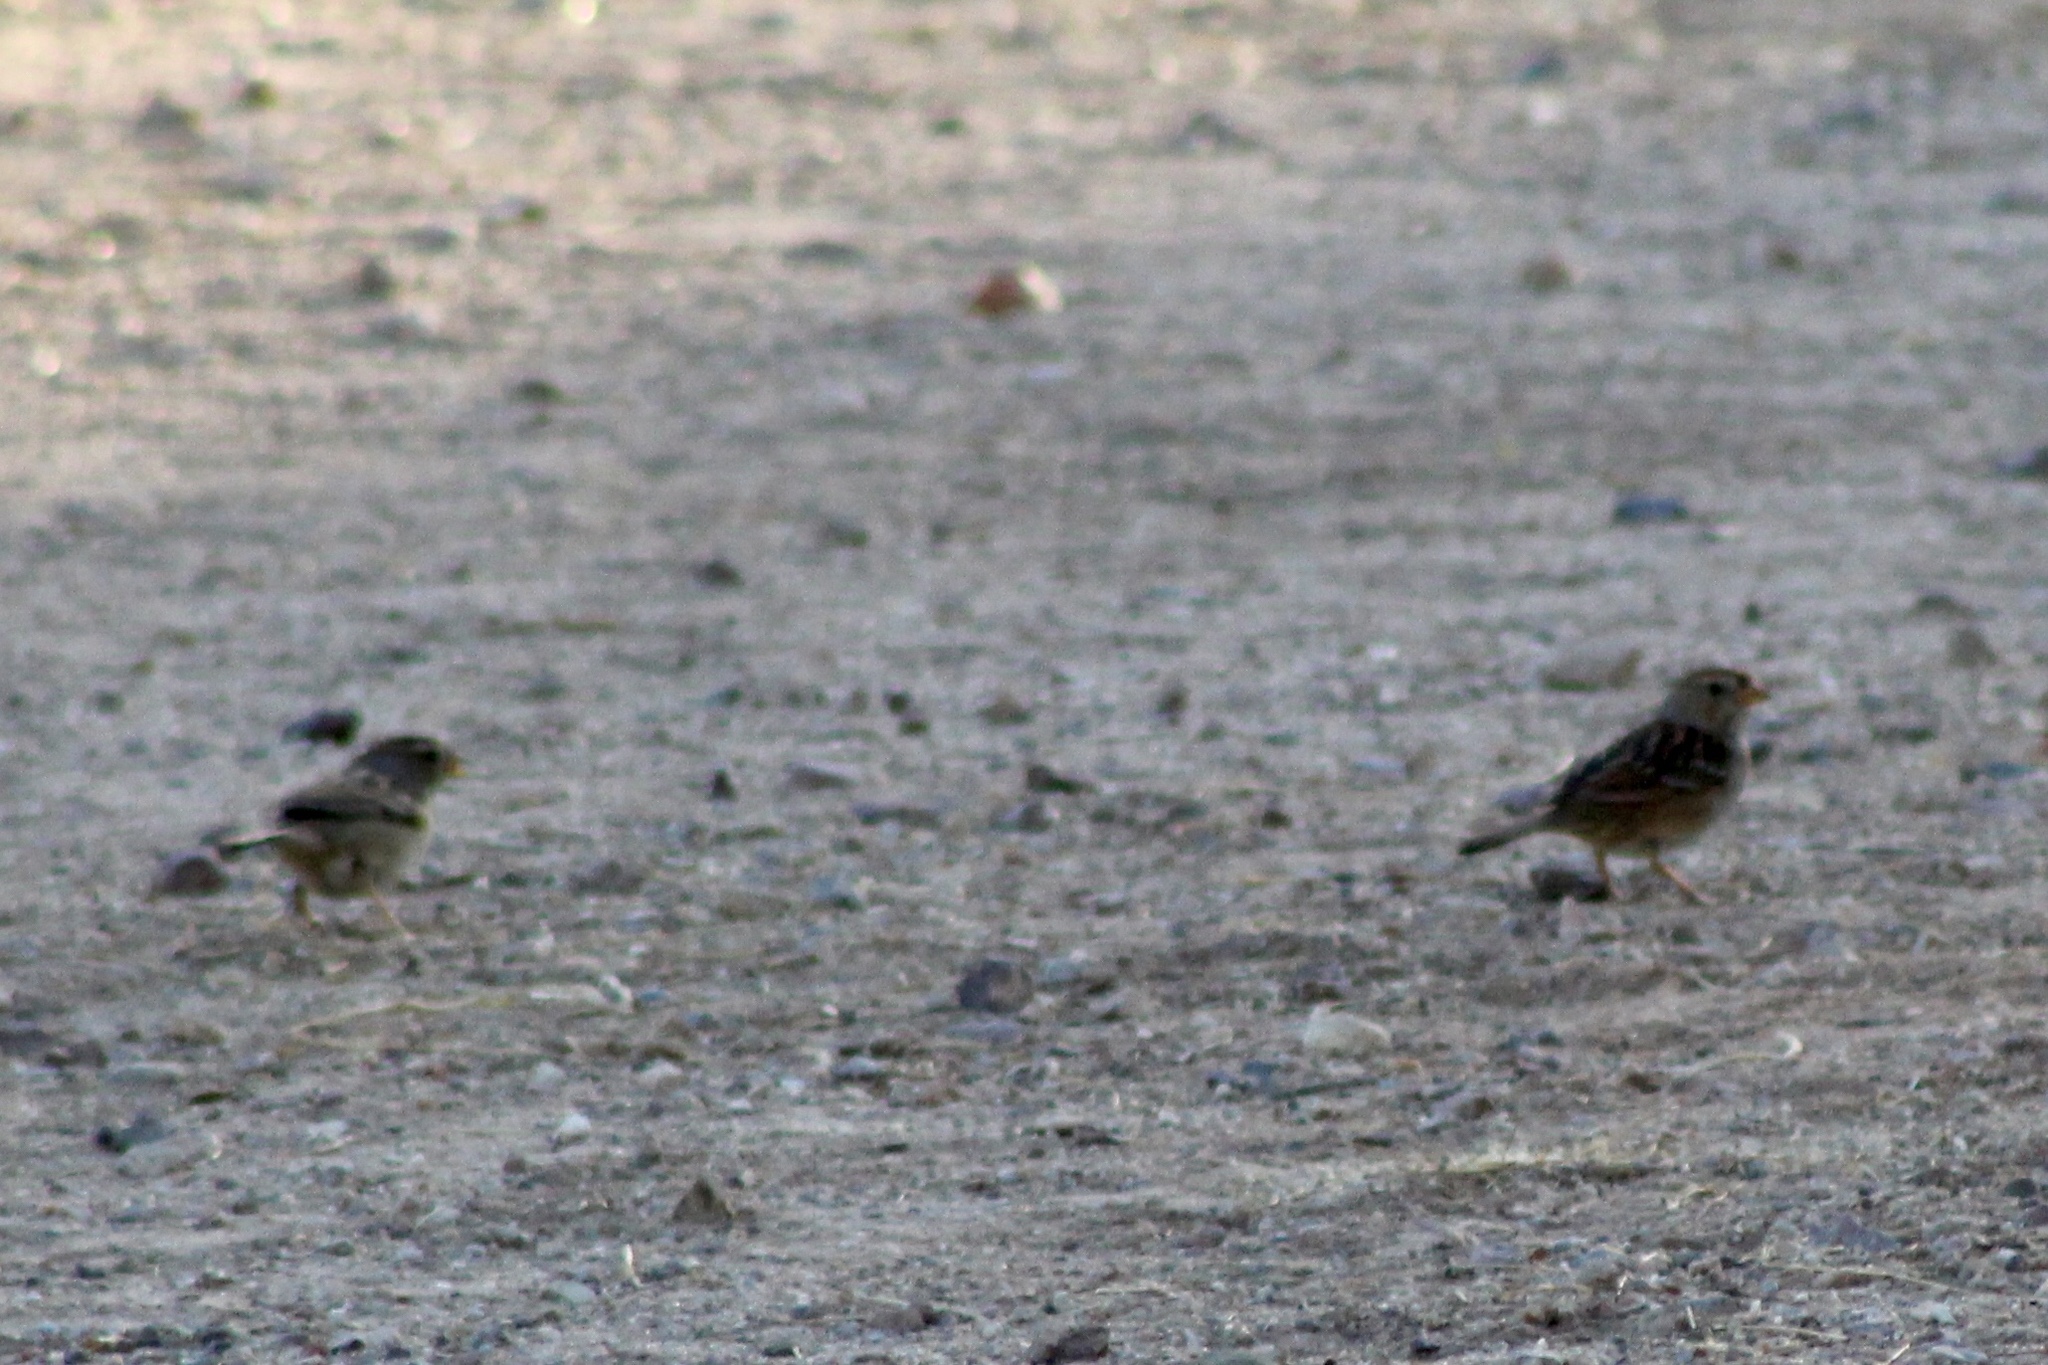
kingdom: Animalia
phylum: Chordata
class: Aves
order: Passeriformes
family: Passerellidae
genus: Zonotrichia
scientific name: Zonotrichia leucophrys
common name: White-crowned sparrow
